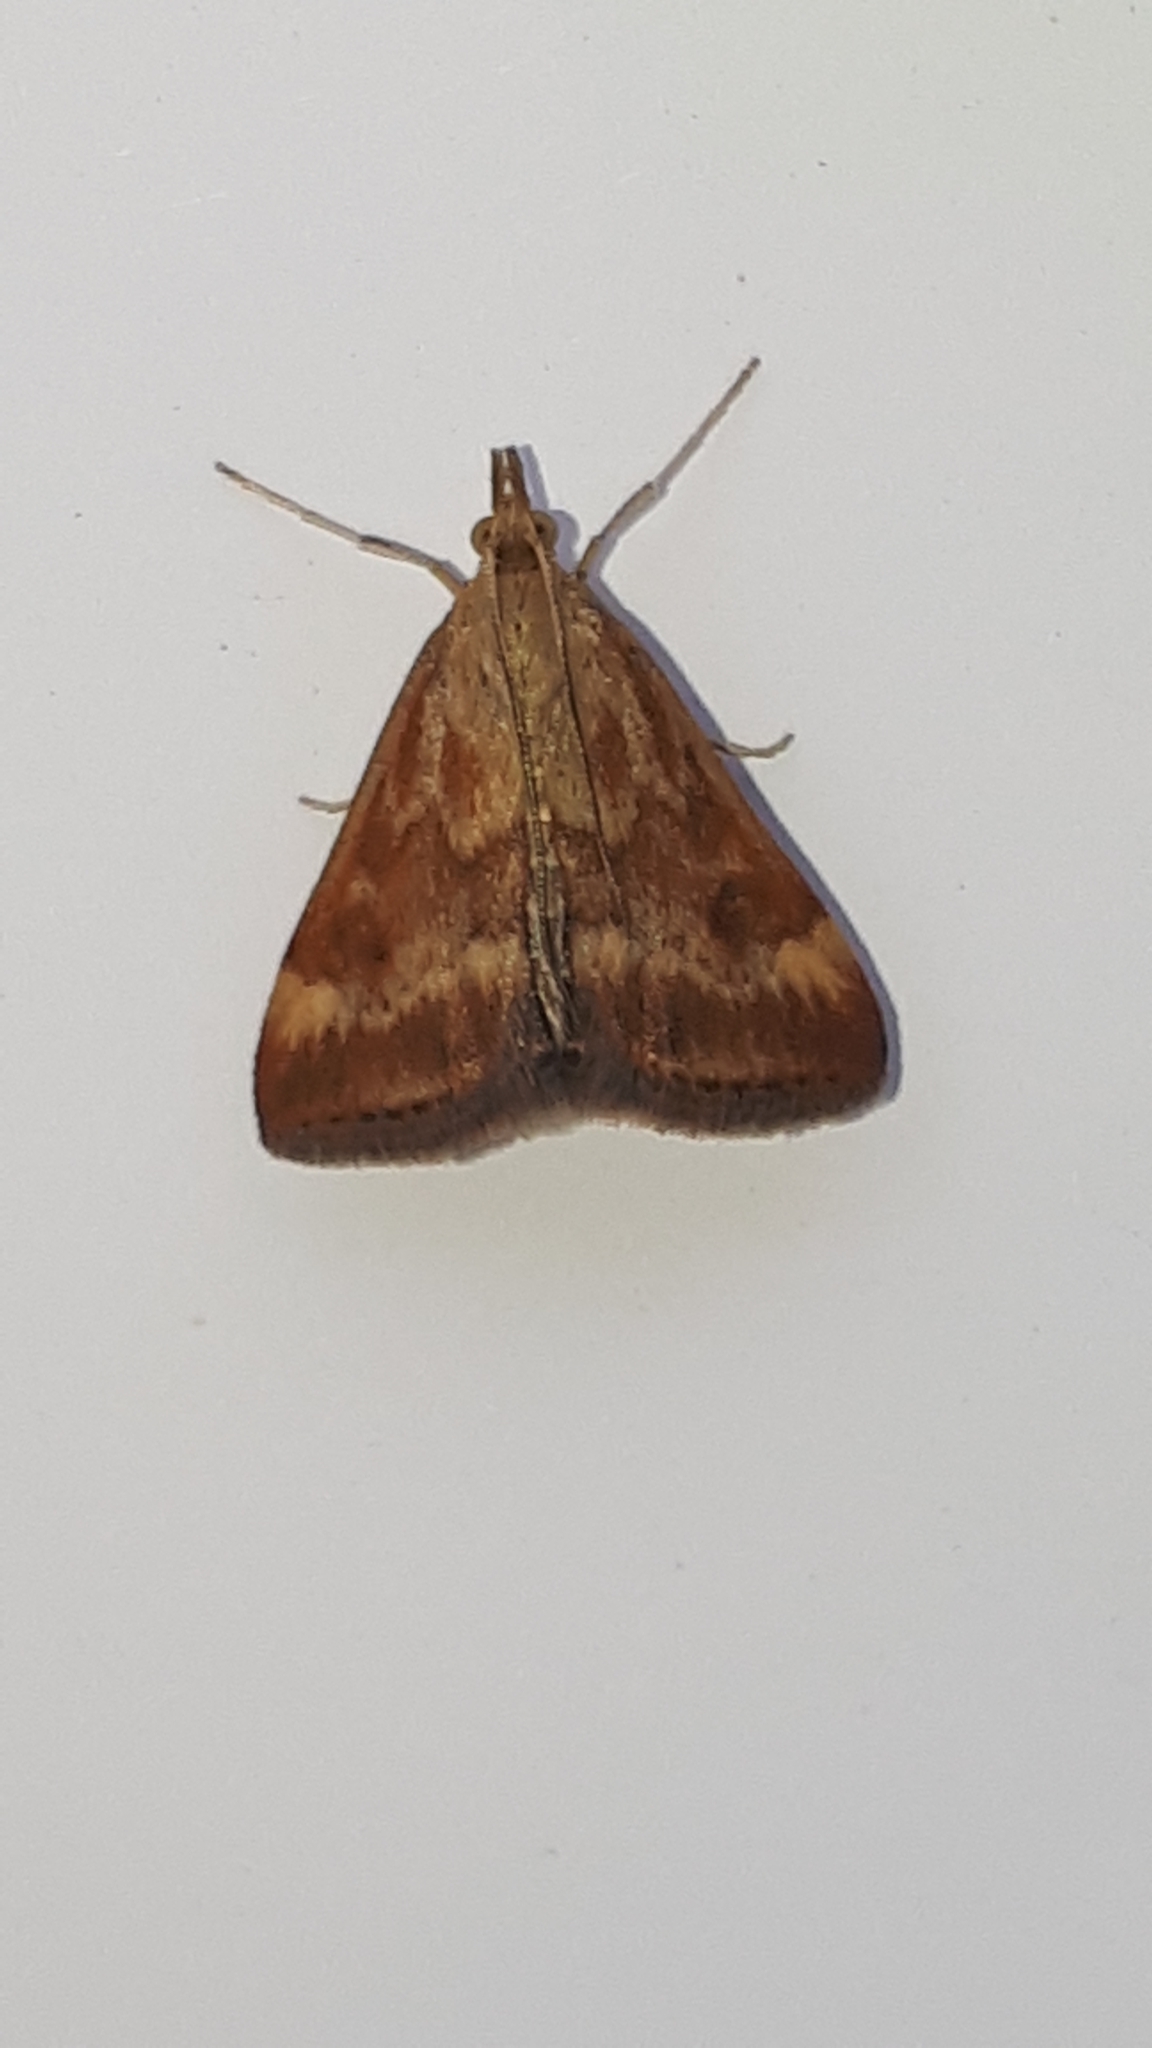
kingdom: Animalia
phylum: Arthropoda
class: Insecta
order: Lepidoptera
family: Crambidae
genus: Pyrausta
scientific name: Pyrausta despicata
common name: Straw-barred pearl
